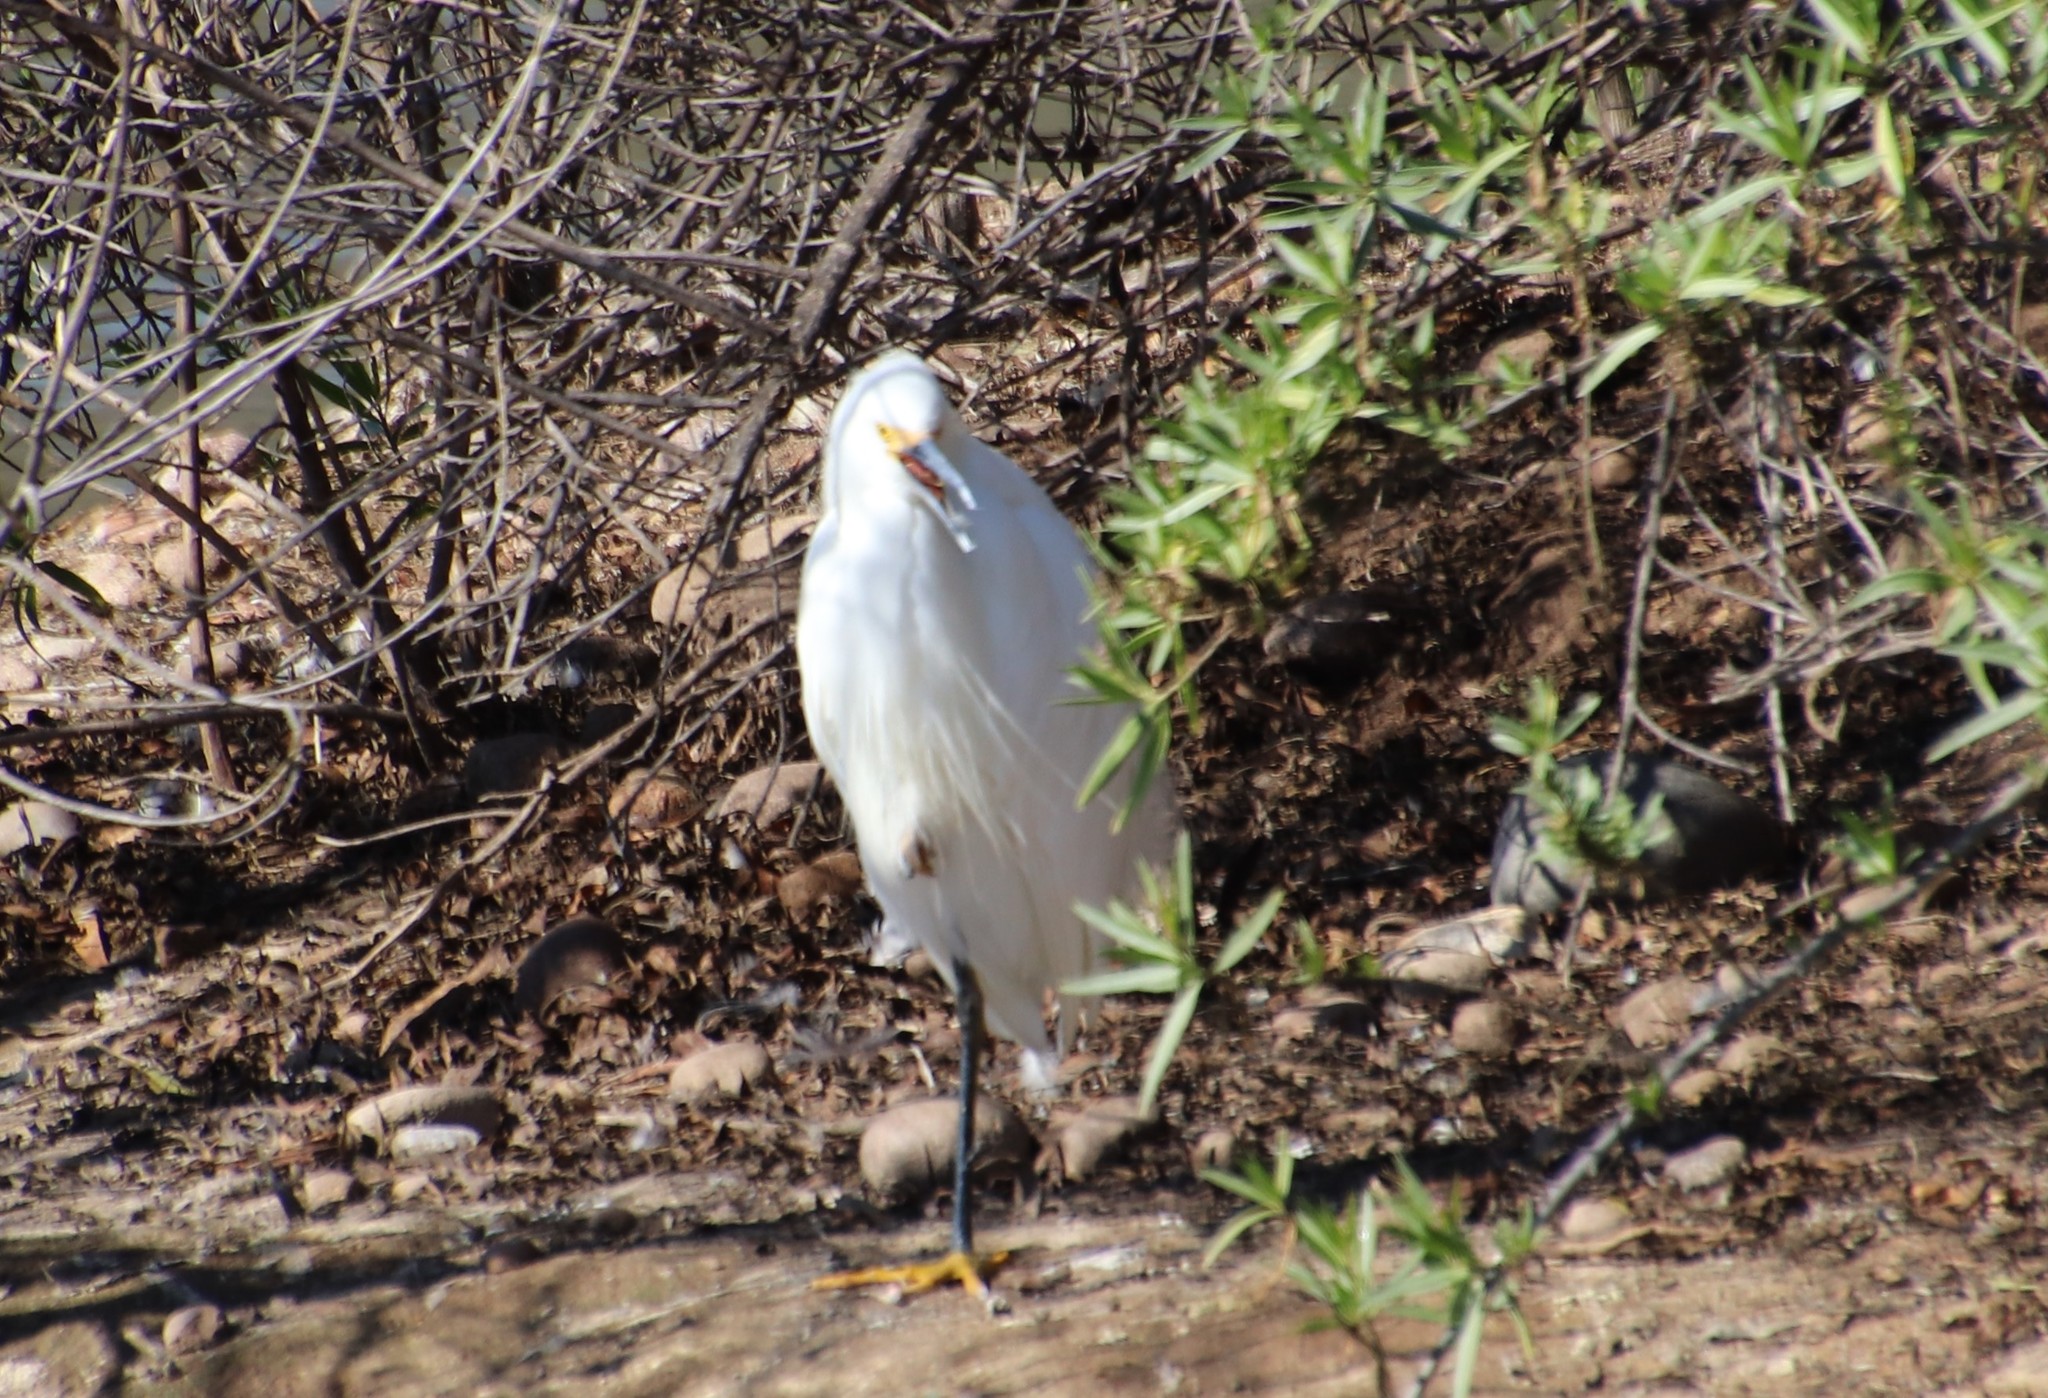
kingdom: Animalia
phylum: Chordata
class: Aves
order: Pelecaniformes
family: Ardeidae
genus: Egretta
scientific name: Egretta thula
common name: Snowy egret
